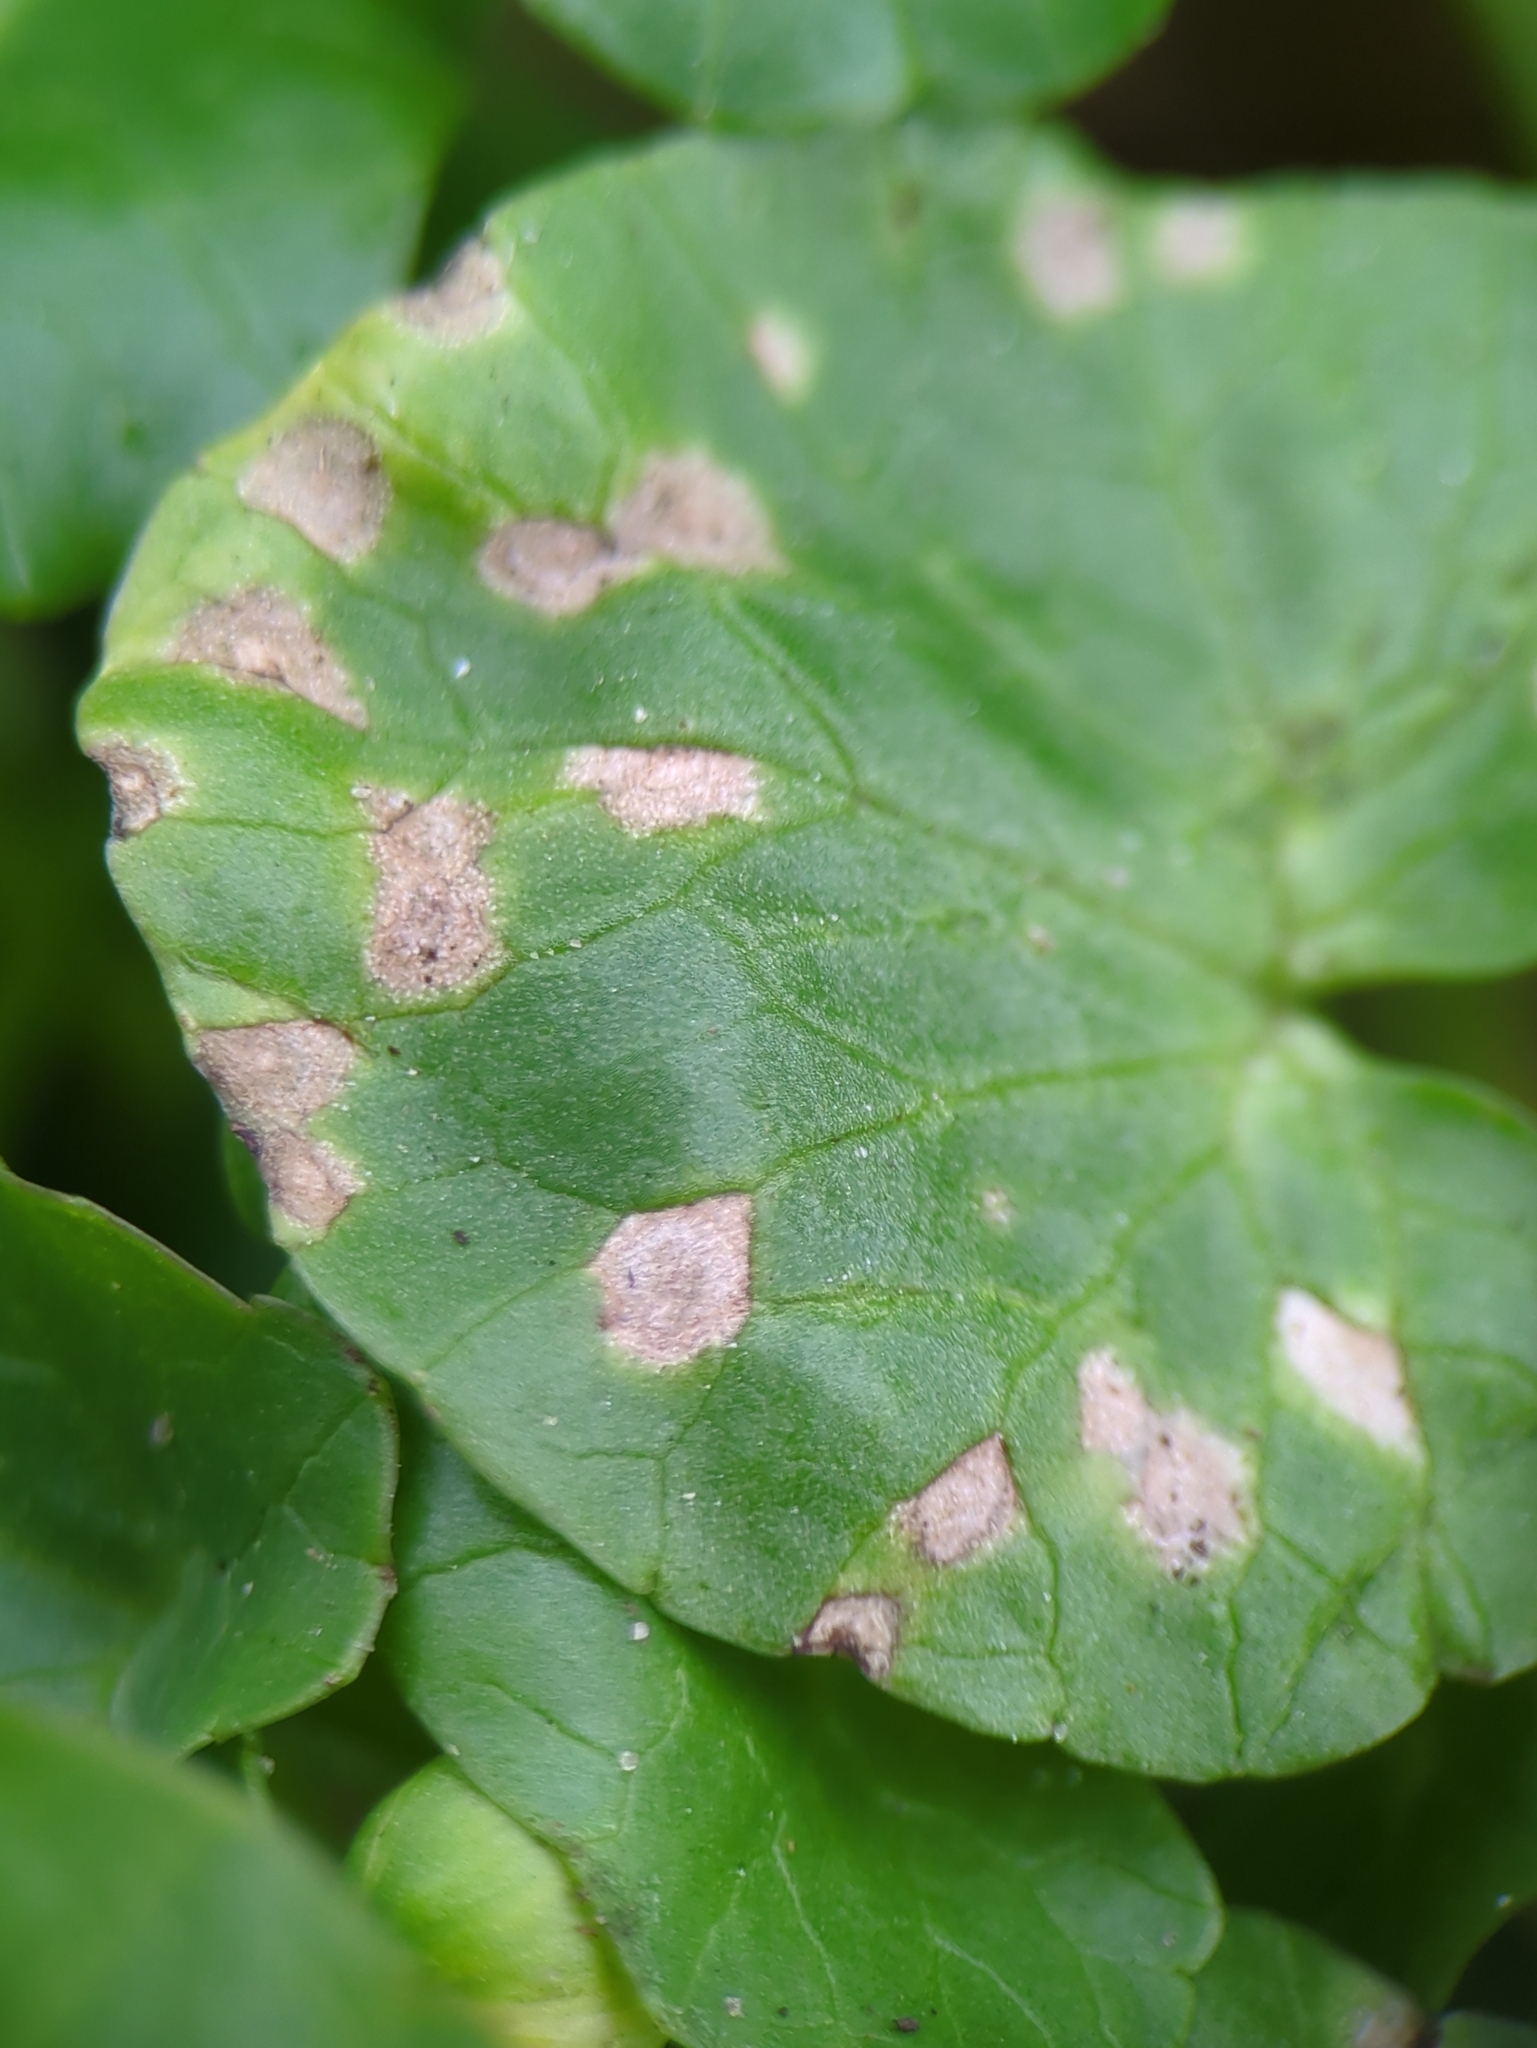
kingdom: Fungi
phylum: Basidiomycota
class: Exobasidiomycetes
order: Entylomatales
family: Entylomataceae
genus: Entyloma
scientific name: Entyloma ficariae
